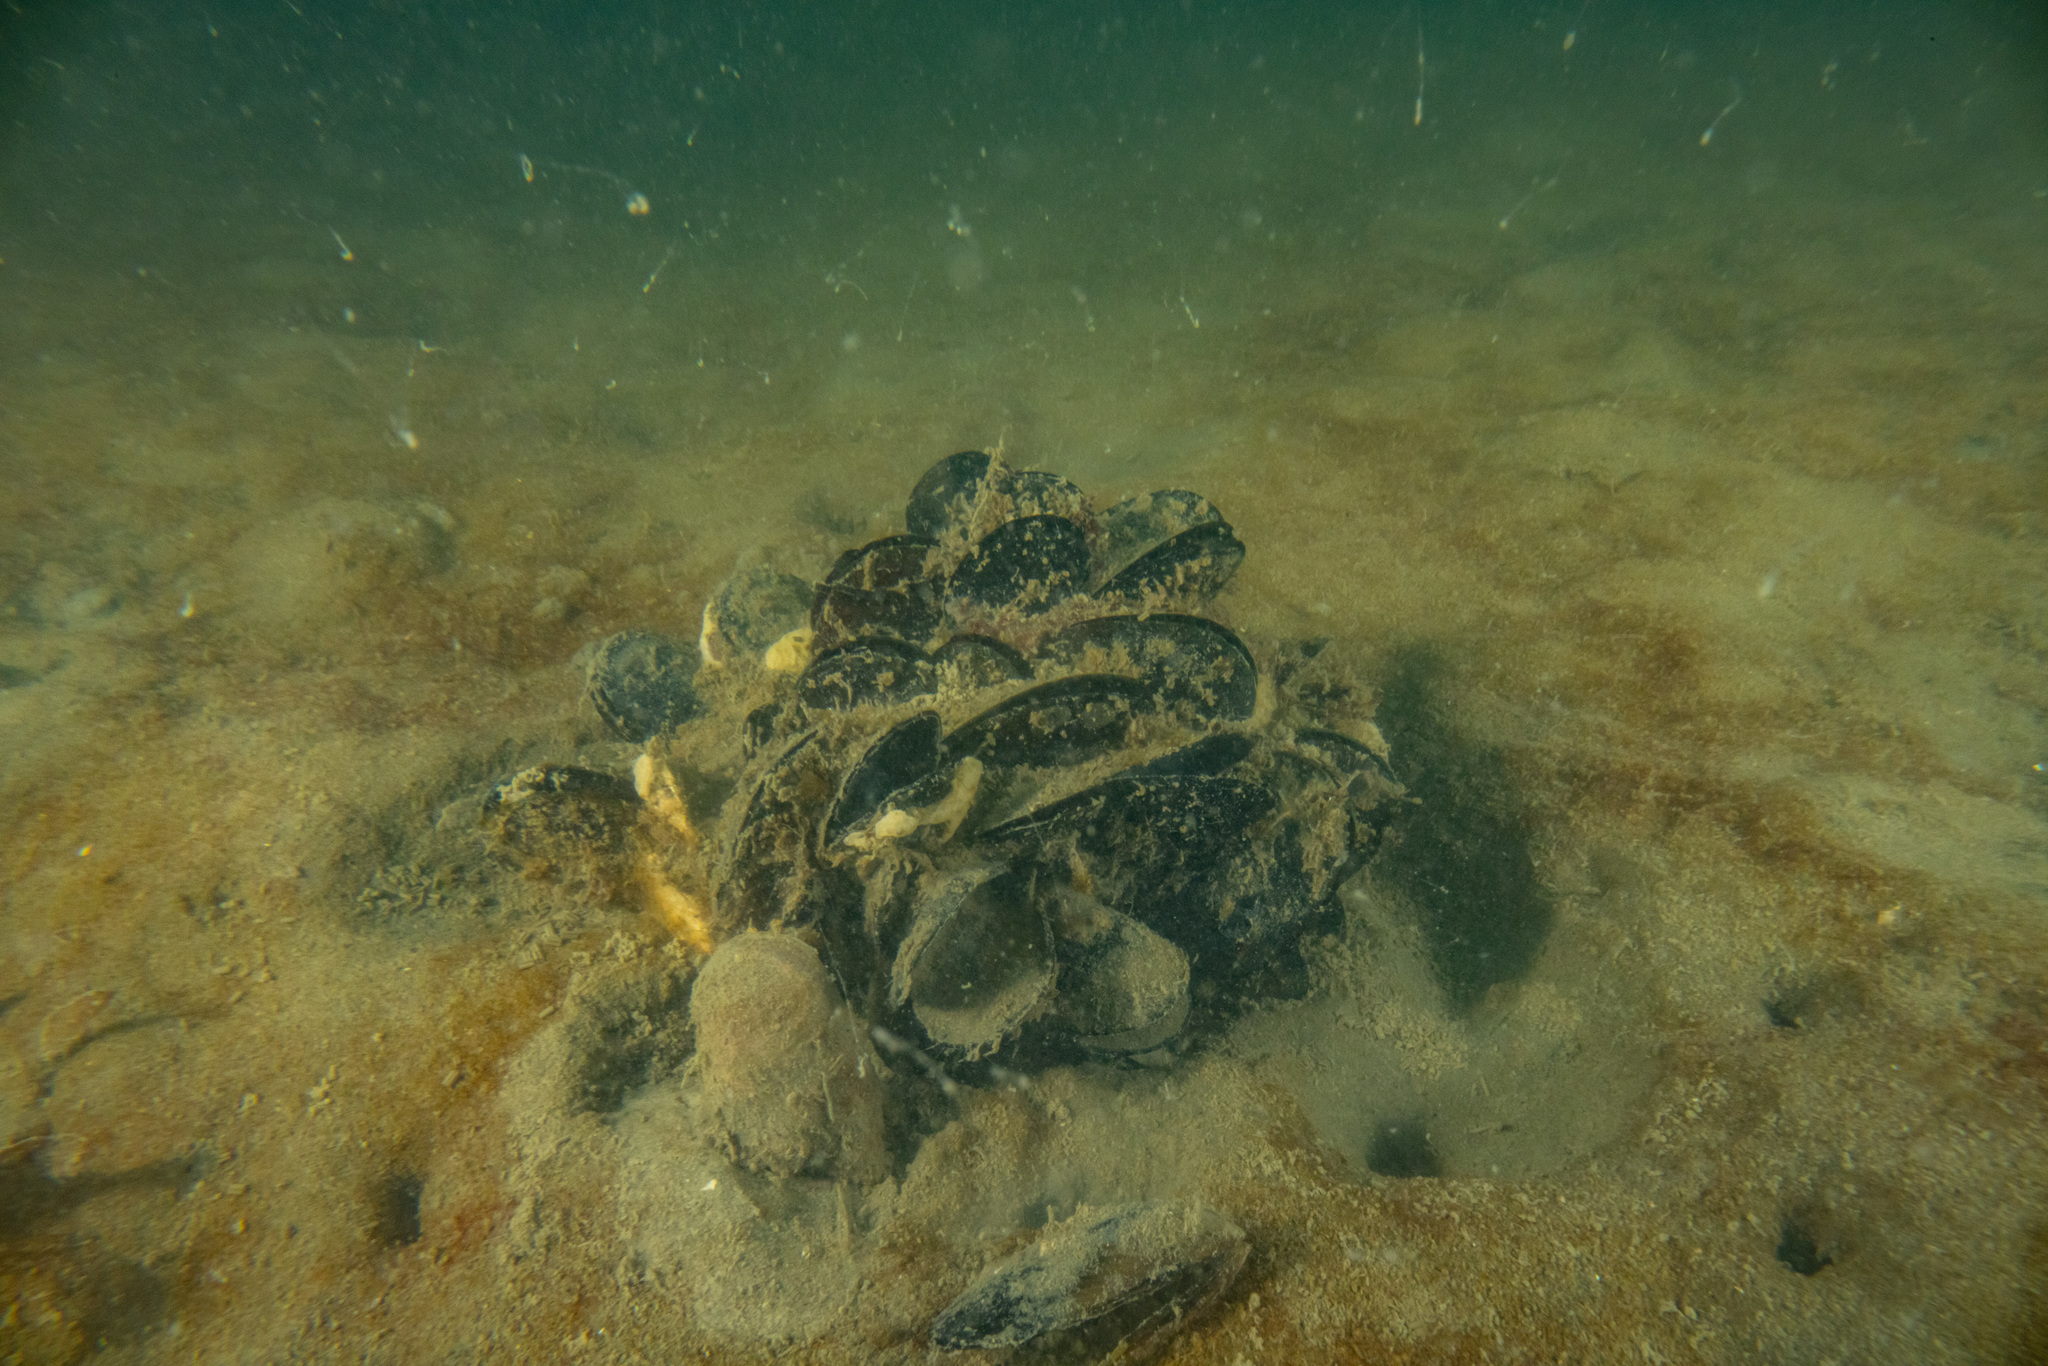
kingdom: Animalia
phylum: Mollusca
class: Bivalvia
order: Mytilida
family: Mytilidae
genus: Mytilus
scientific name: Mytilus planulatus
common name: Australian mussel
